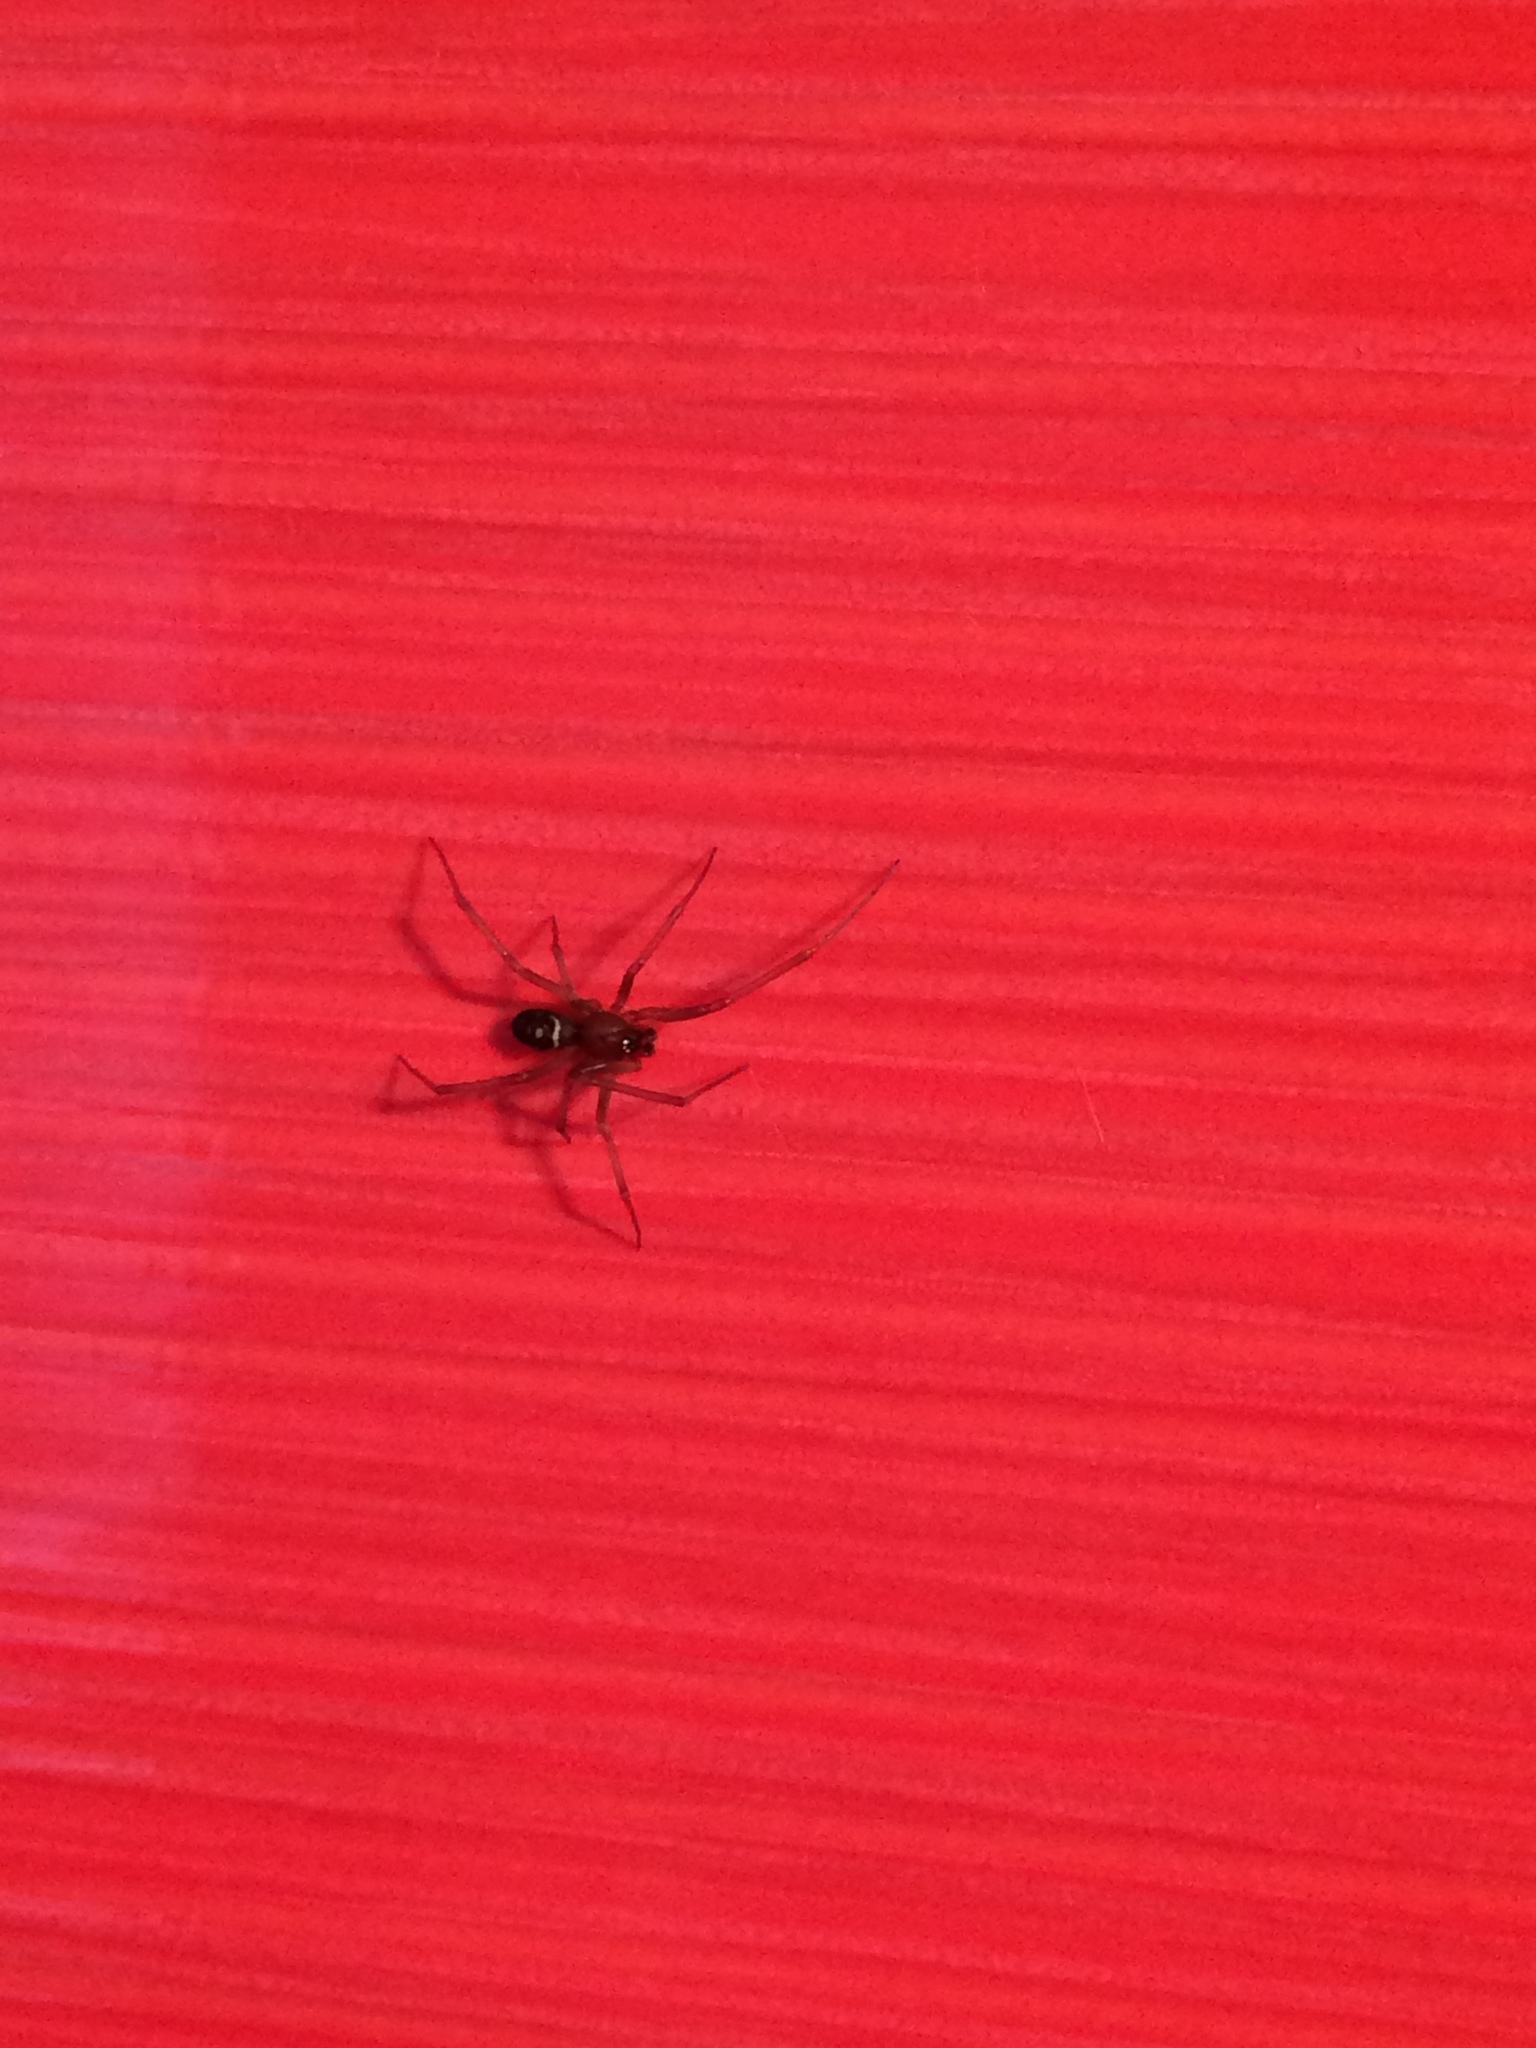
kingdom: Animalia
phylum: Arthropoda
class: Arachnida
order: Araneae
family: Theridiidae
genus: Steatoda
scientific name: Steatoda grossa
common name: False black widow
